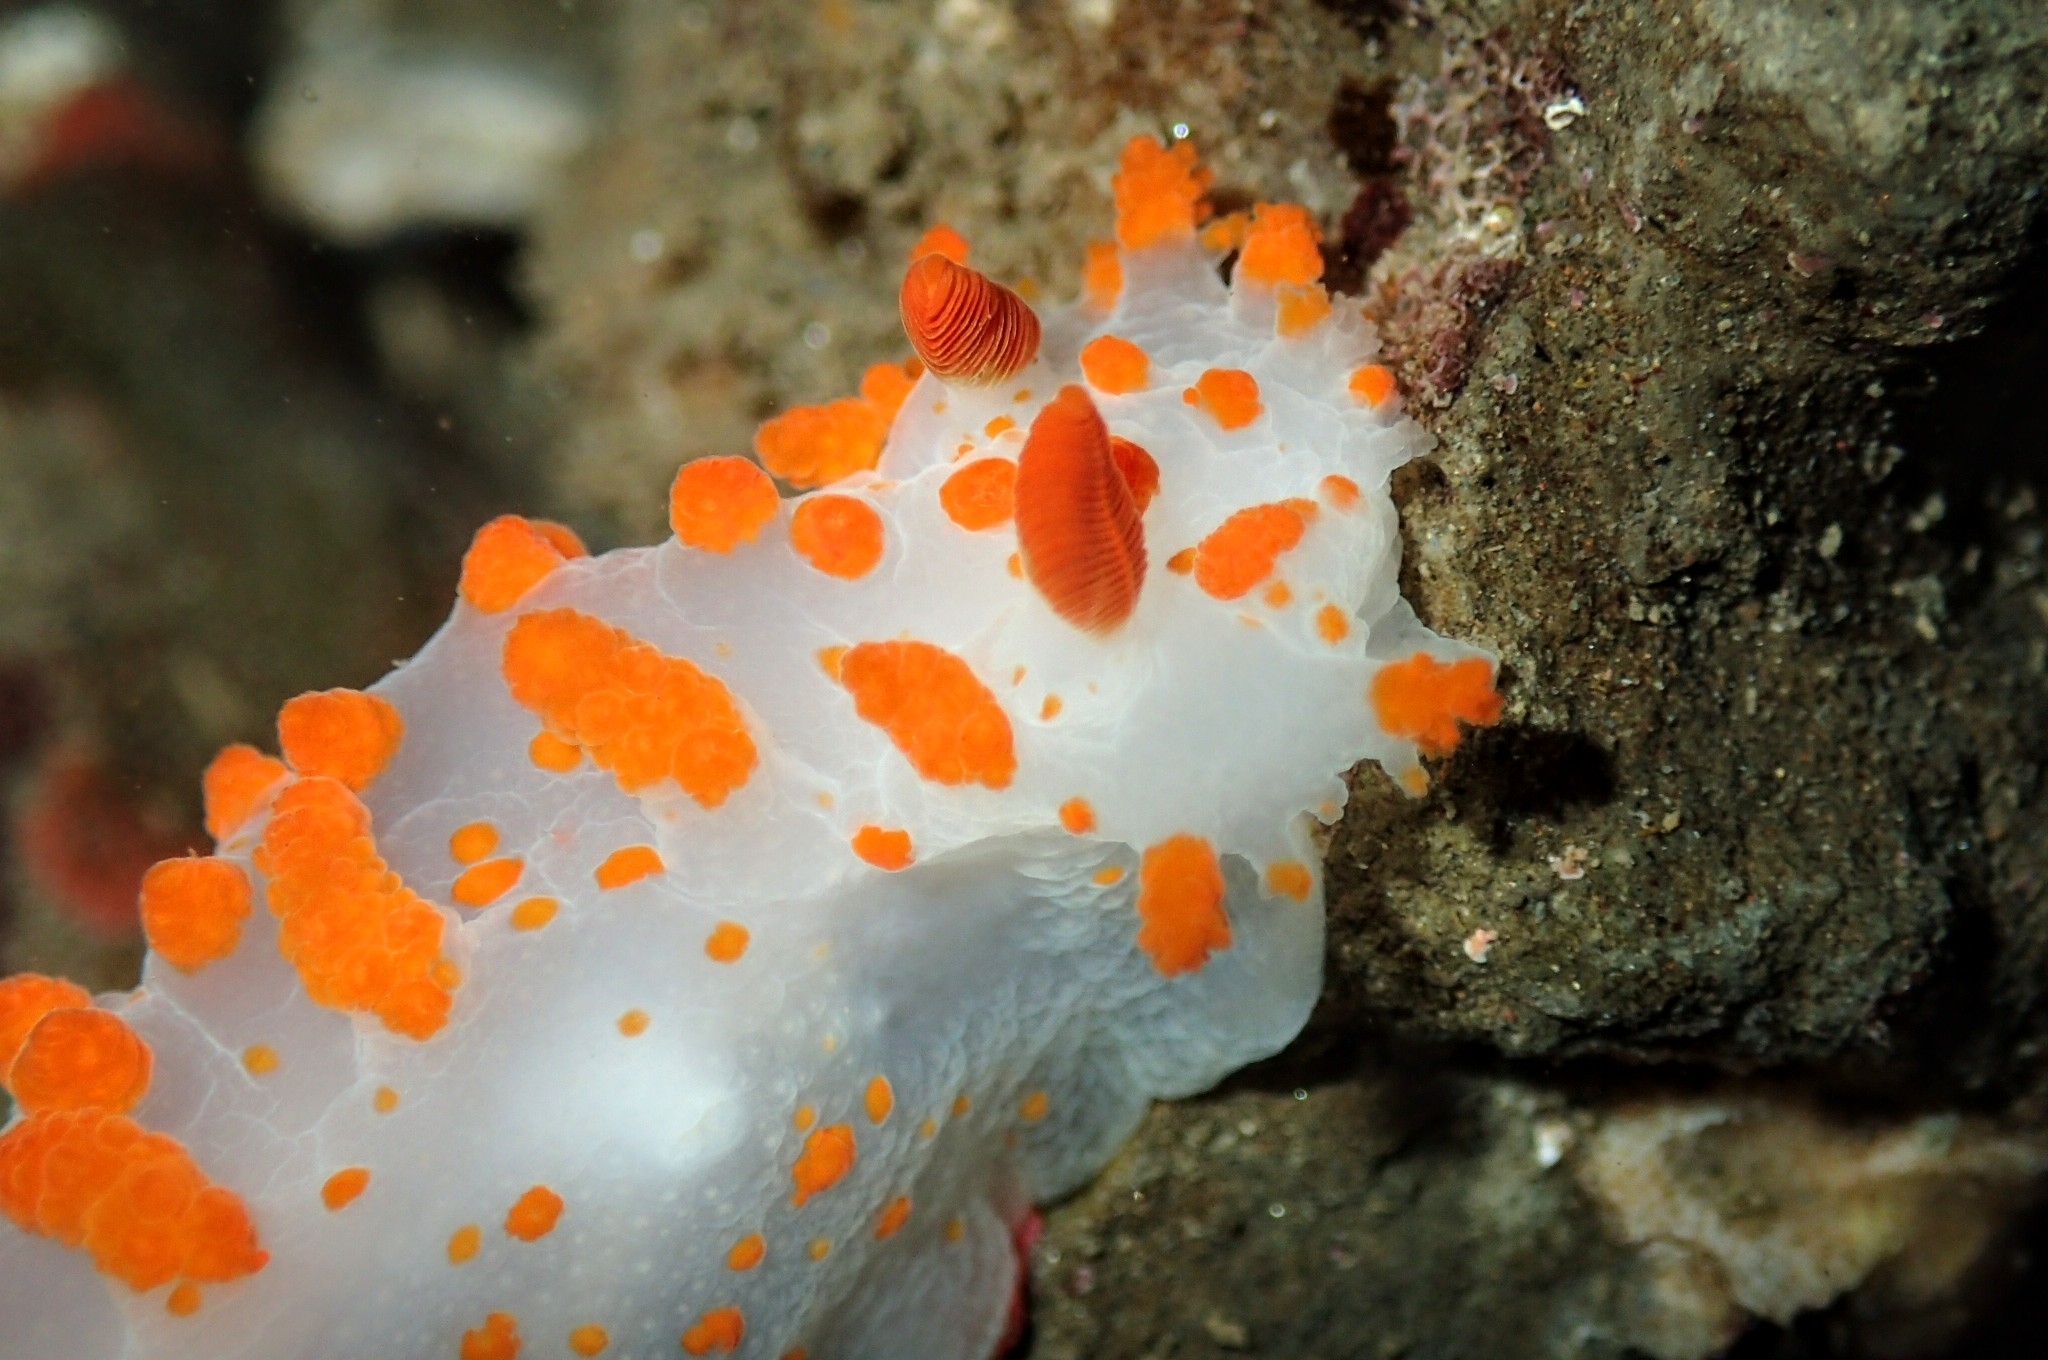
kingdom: Animalia
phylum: Mollusca
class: Gastropoda
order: Nudibranchia
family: Polyceridae
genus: Triopha
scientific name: Triopha catalinae
